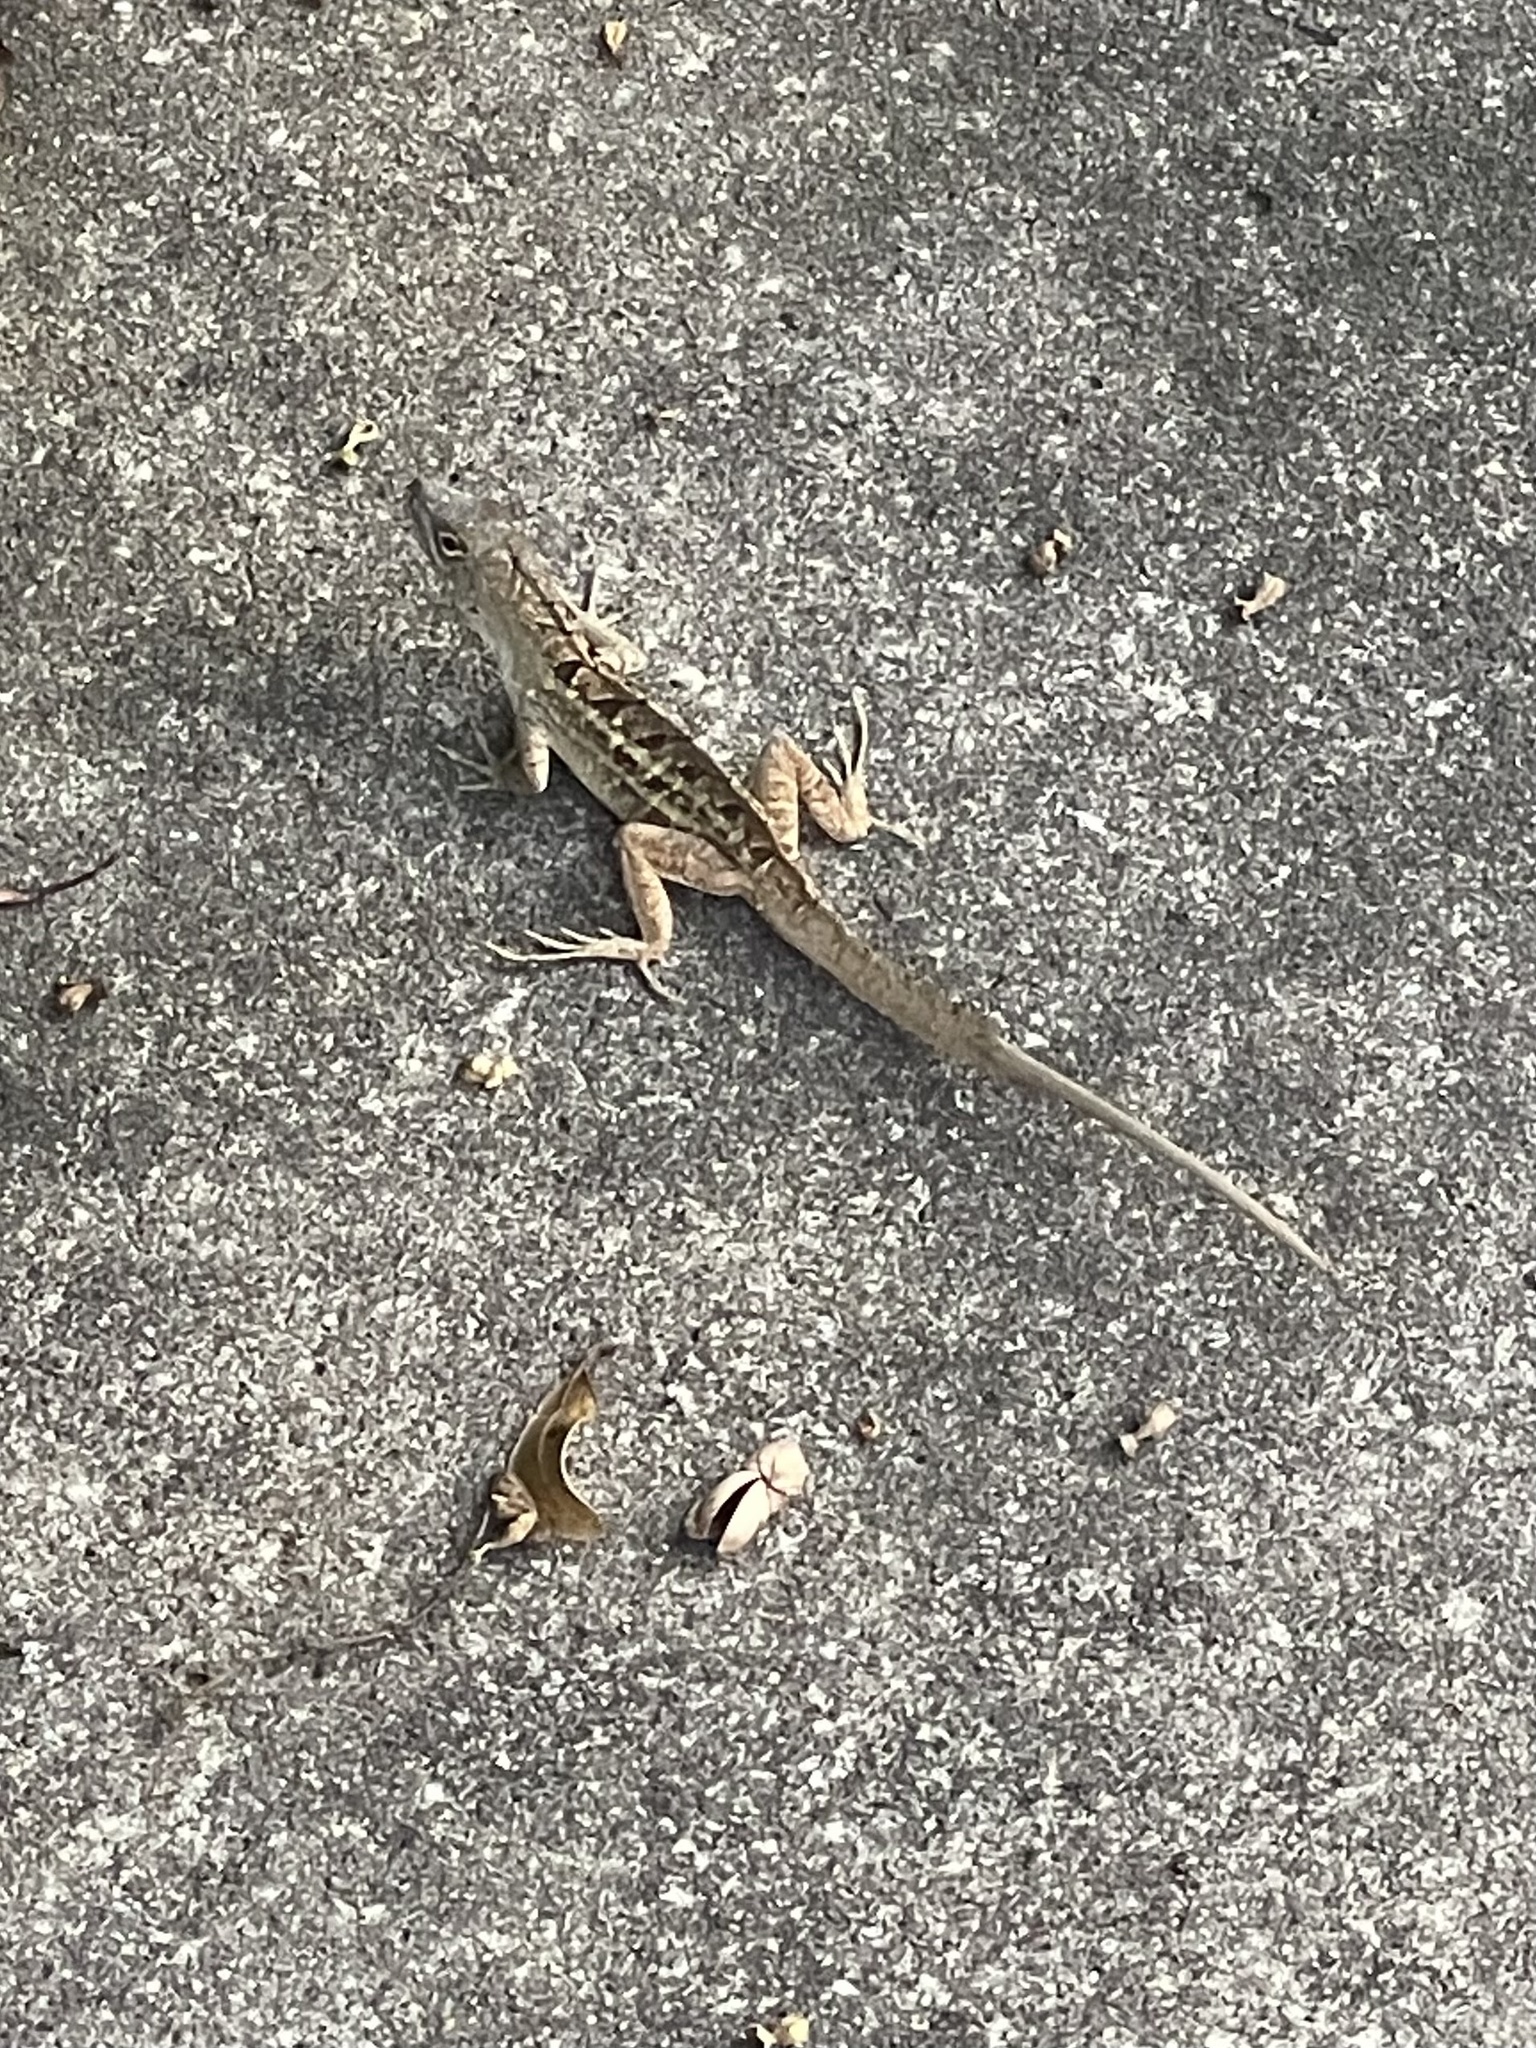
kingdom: Animalia
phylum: Chordata
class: Squamata
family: Dactyloidae
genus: Anolis
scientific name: Anolis sagrei
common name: Brown anole
